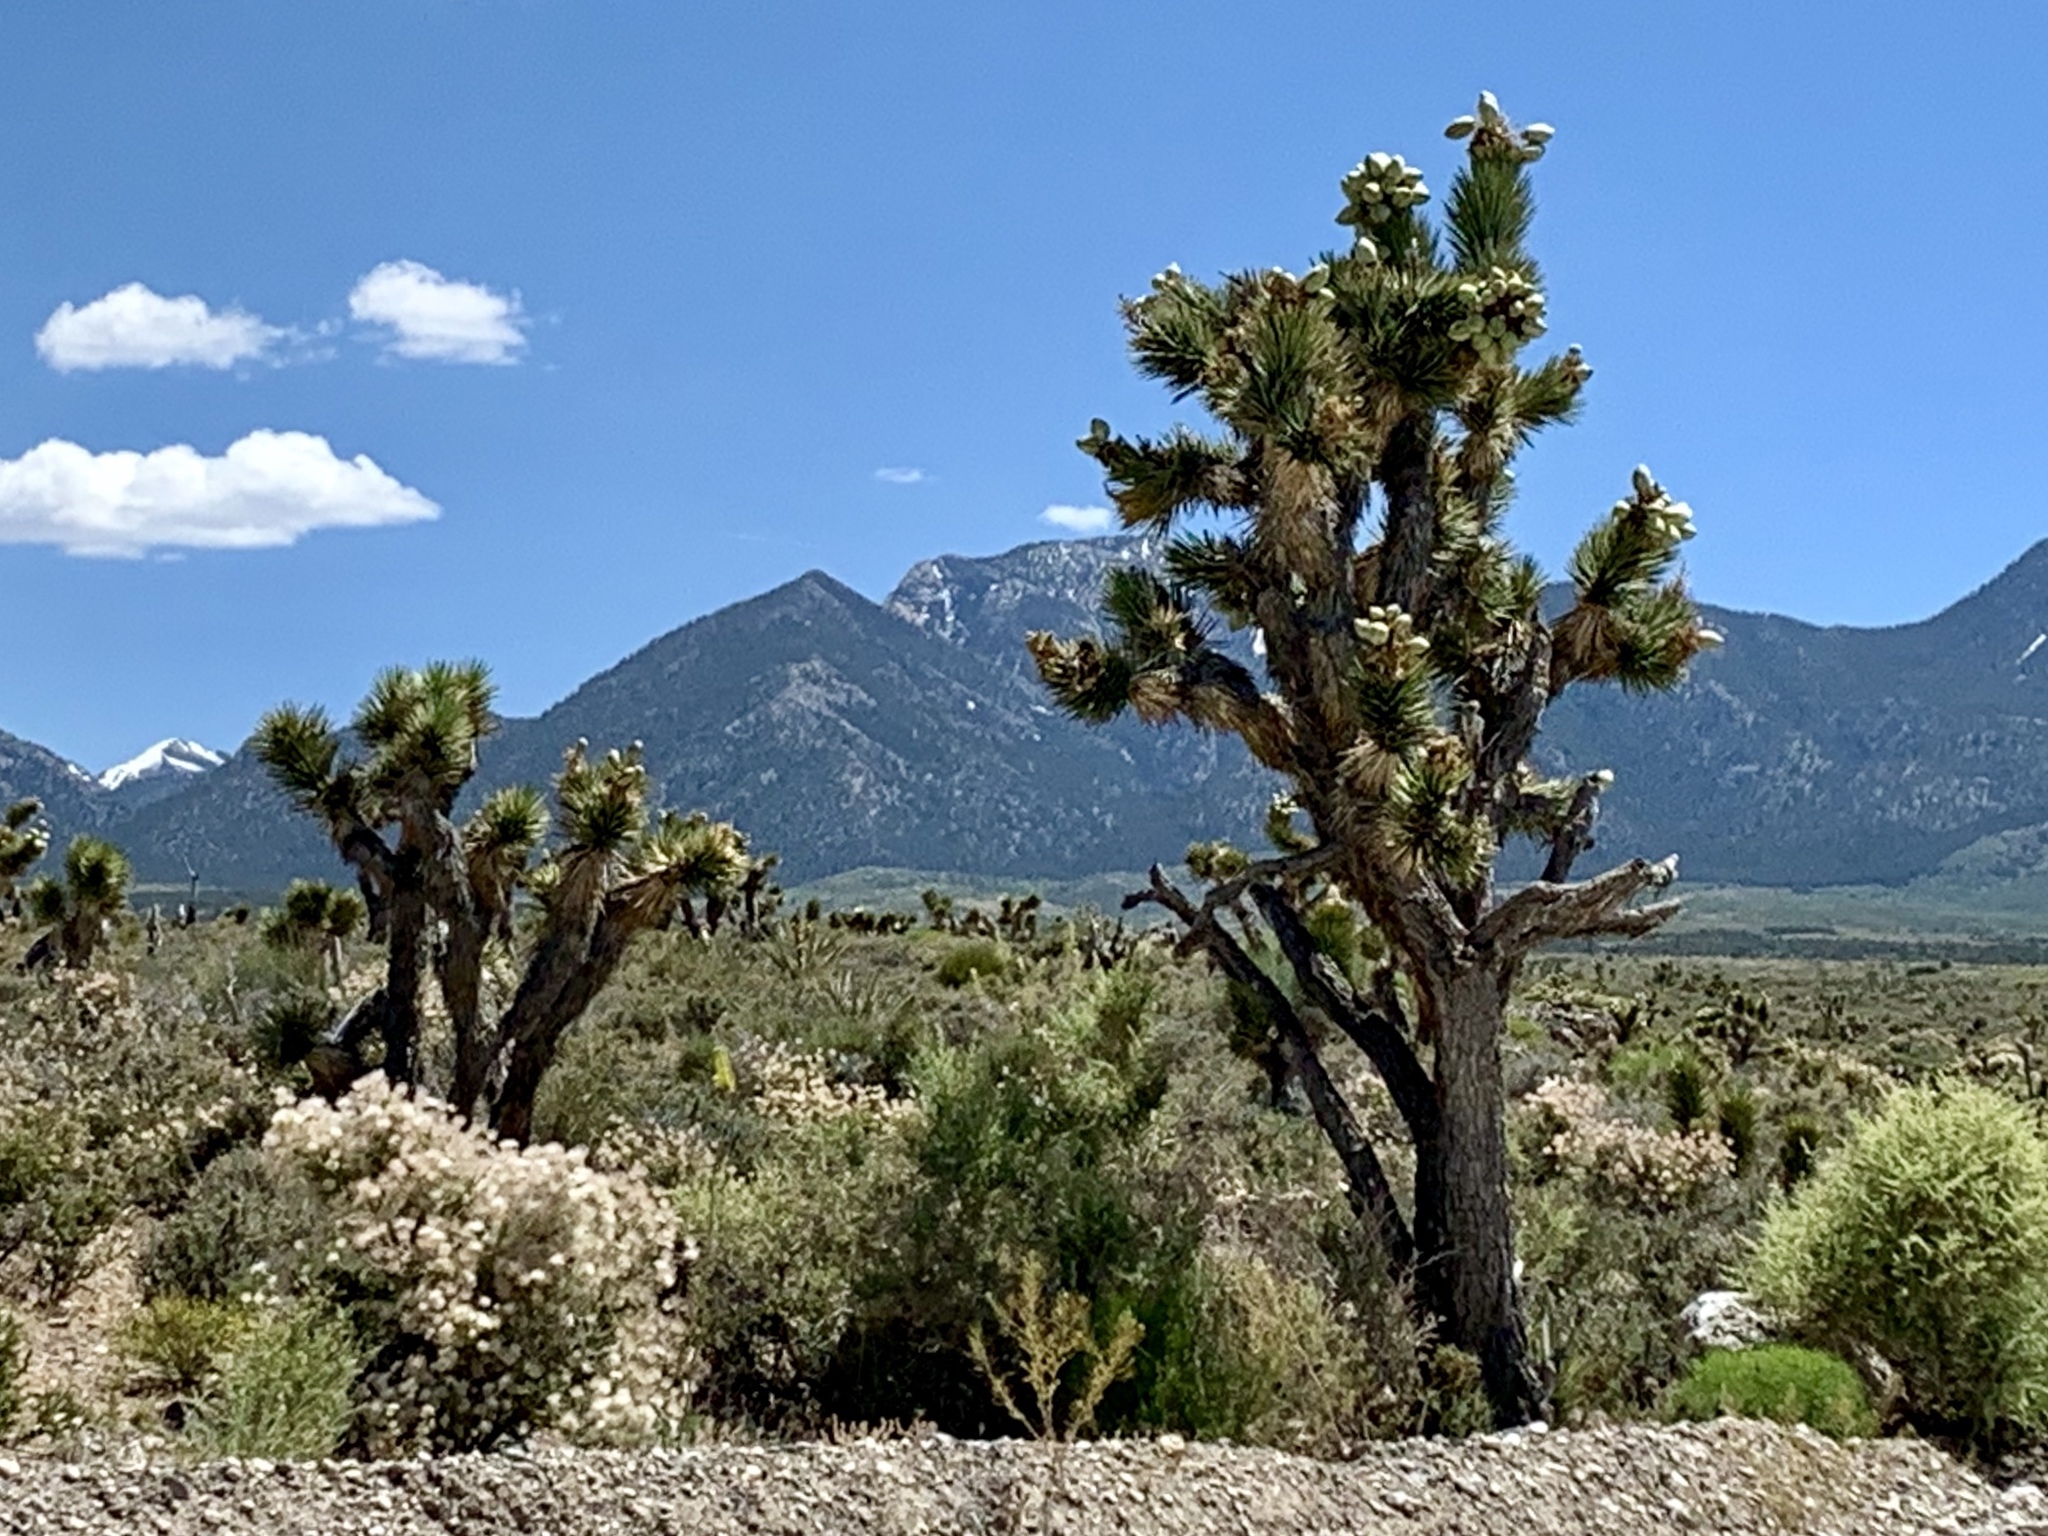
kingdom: Plantae
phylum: Tracheophyta
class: Liliopsida
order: Asparagales
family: Asparagaceae
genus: Yucca
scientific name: Yucca brevifolia
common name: Joshua tree
